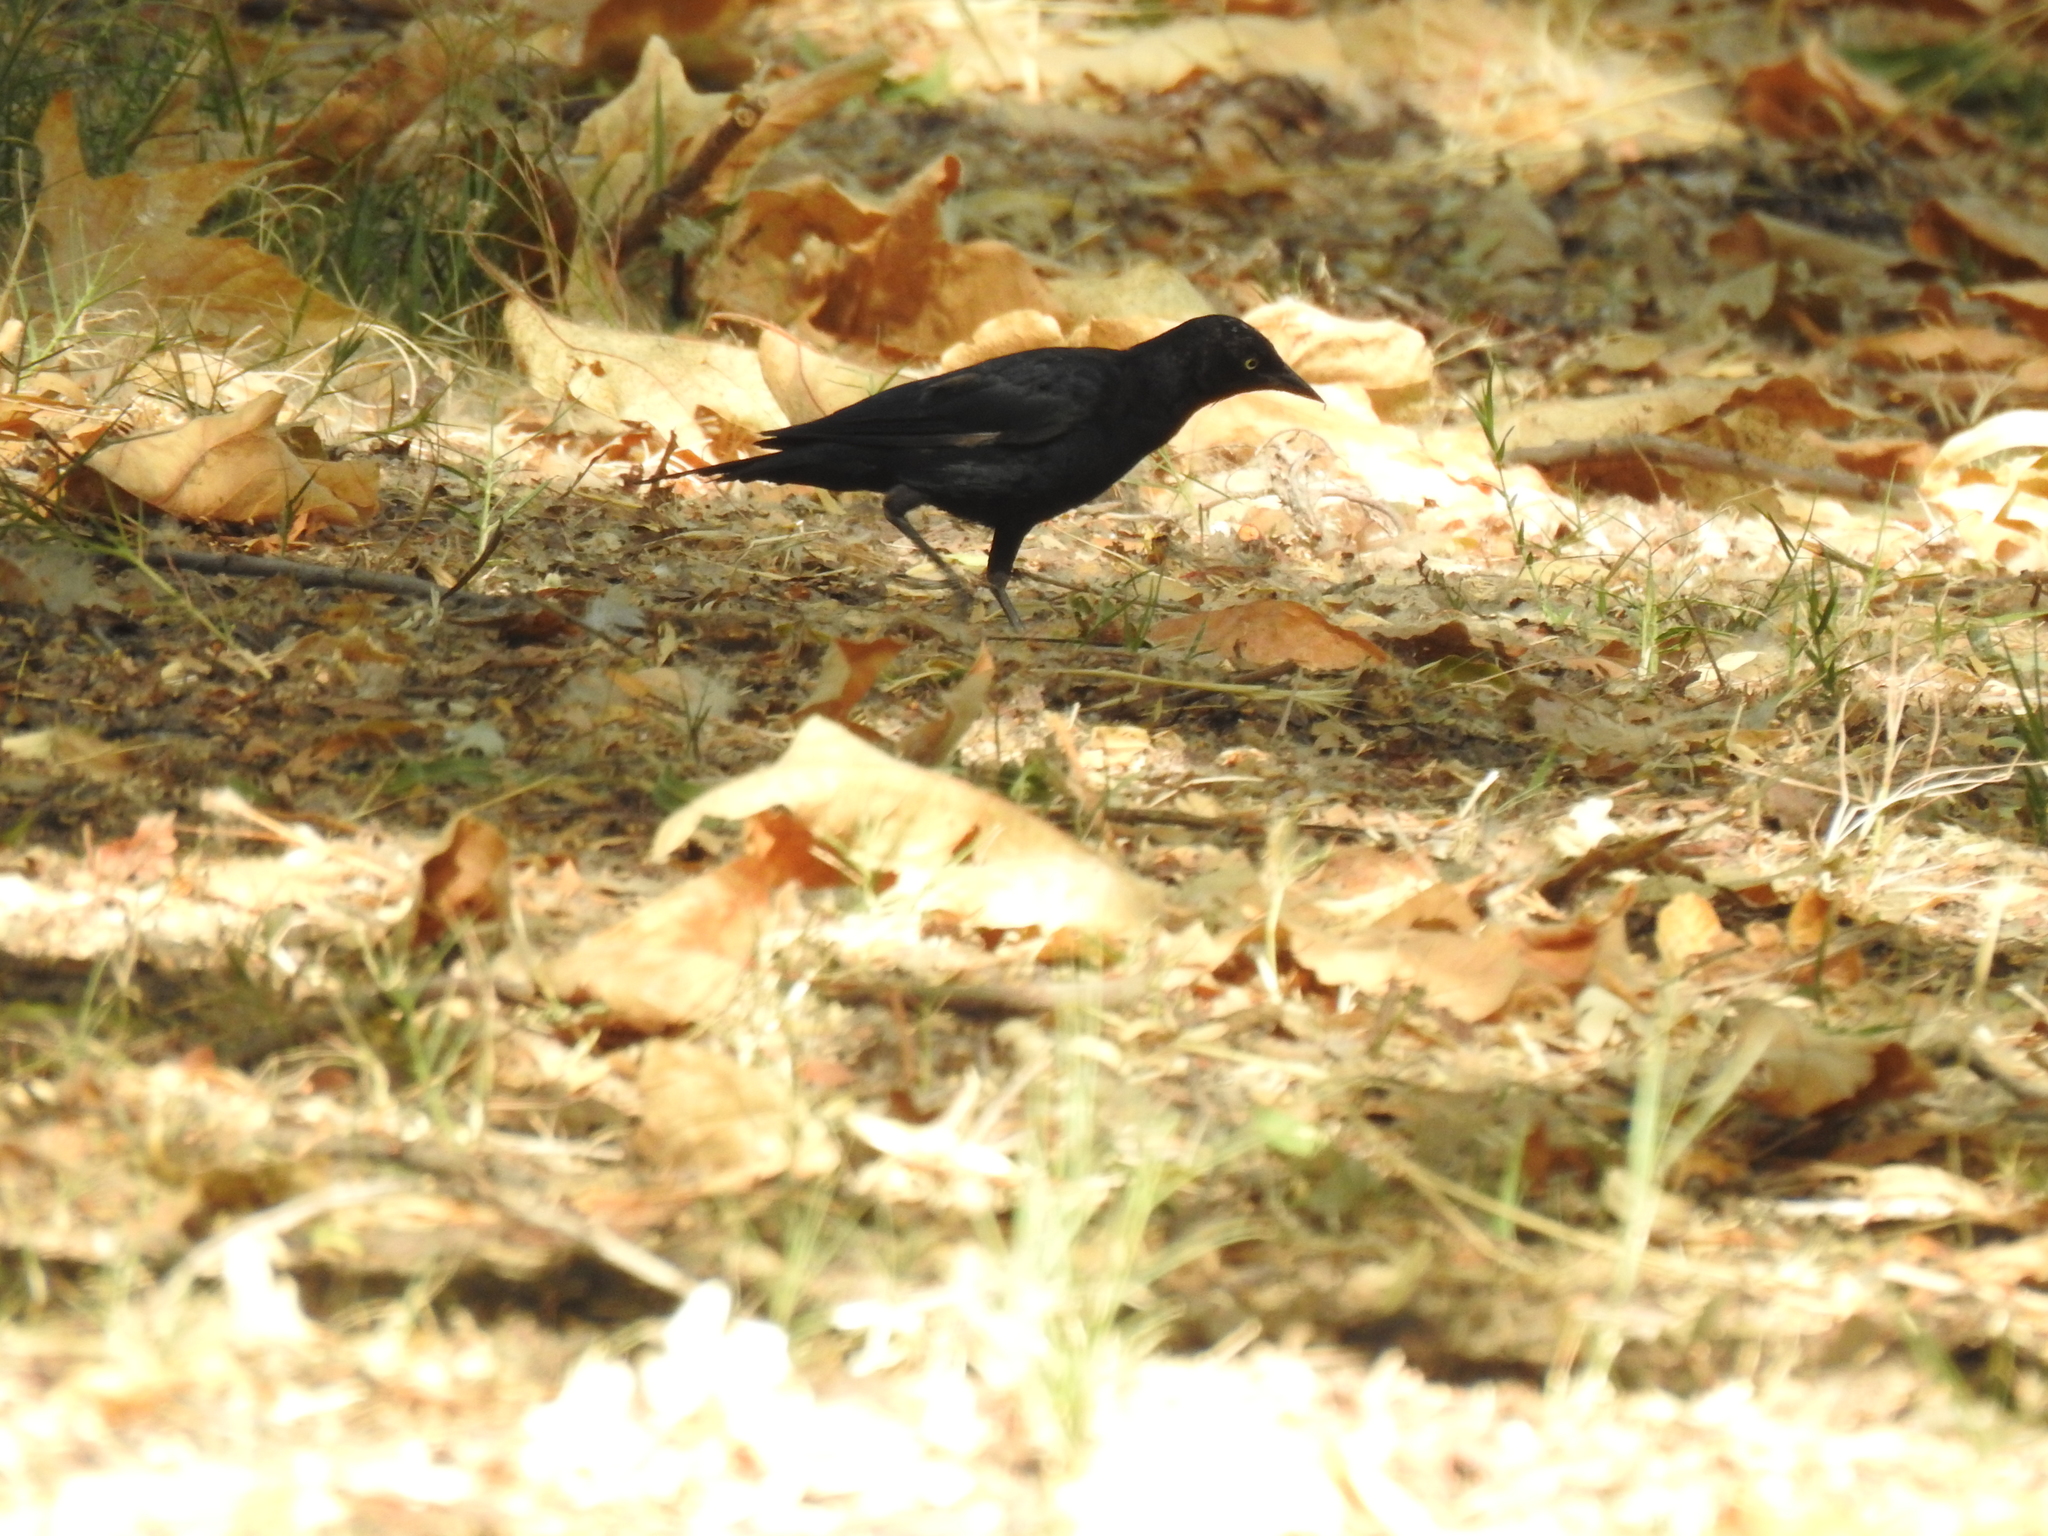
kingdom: Animalia
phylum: Chordata
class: Aves
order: Passeriformes
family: Icteridae
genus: Euphagus
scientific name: Euphagus cyanocephalus
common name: Brewer's blackbird
